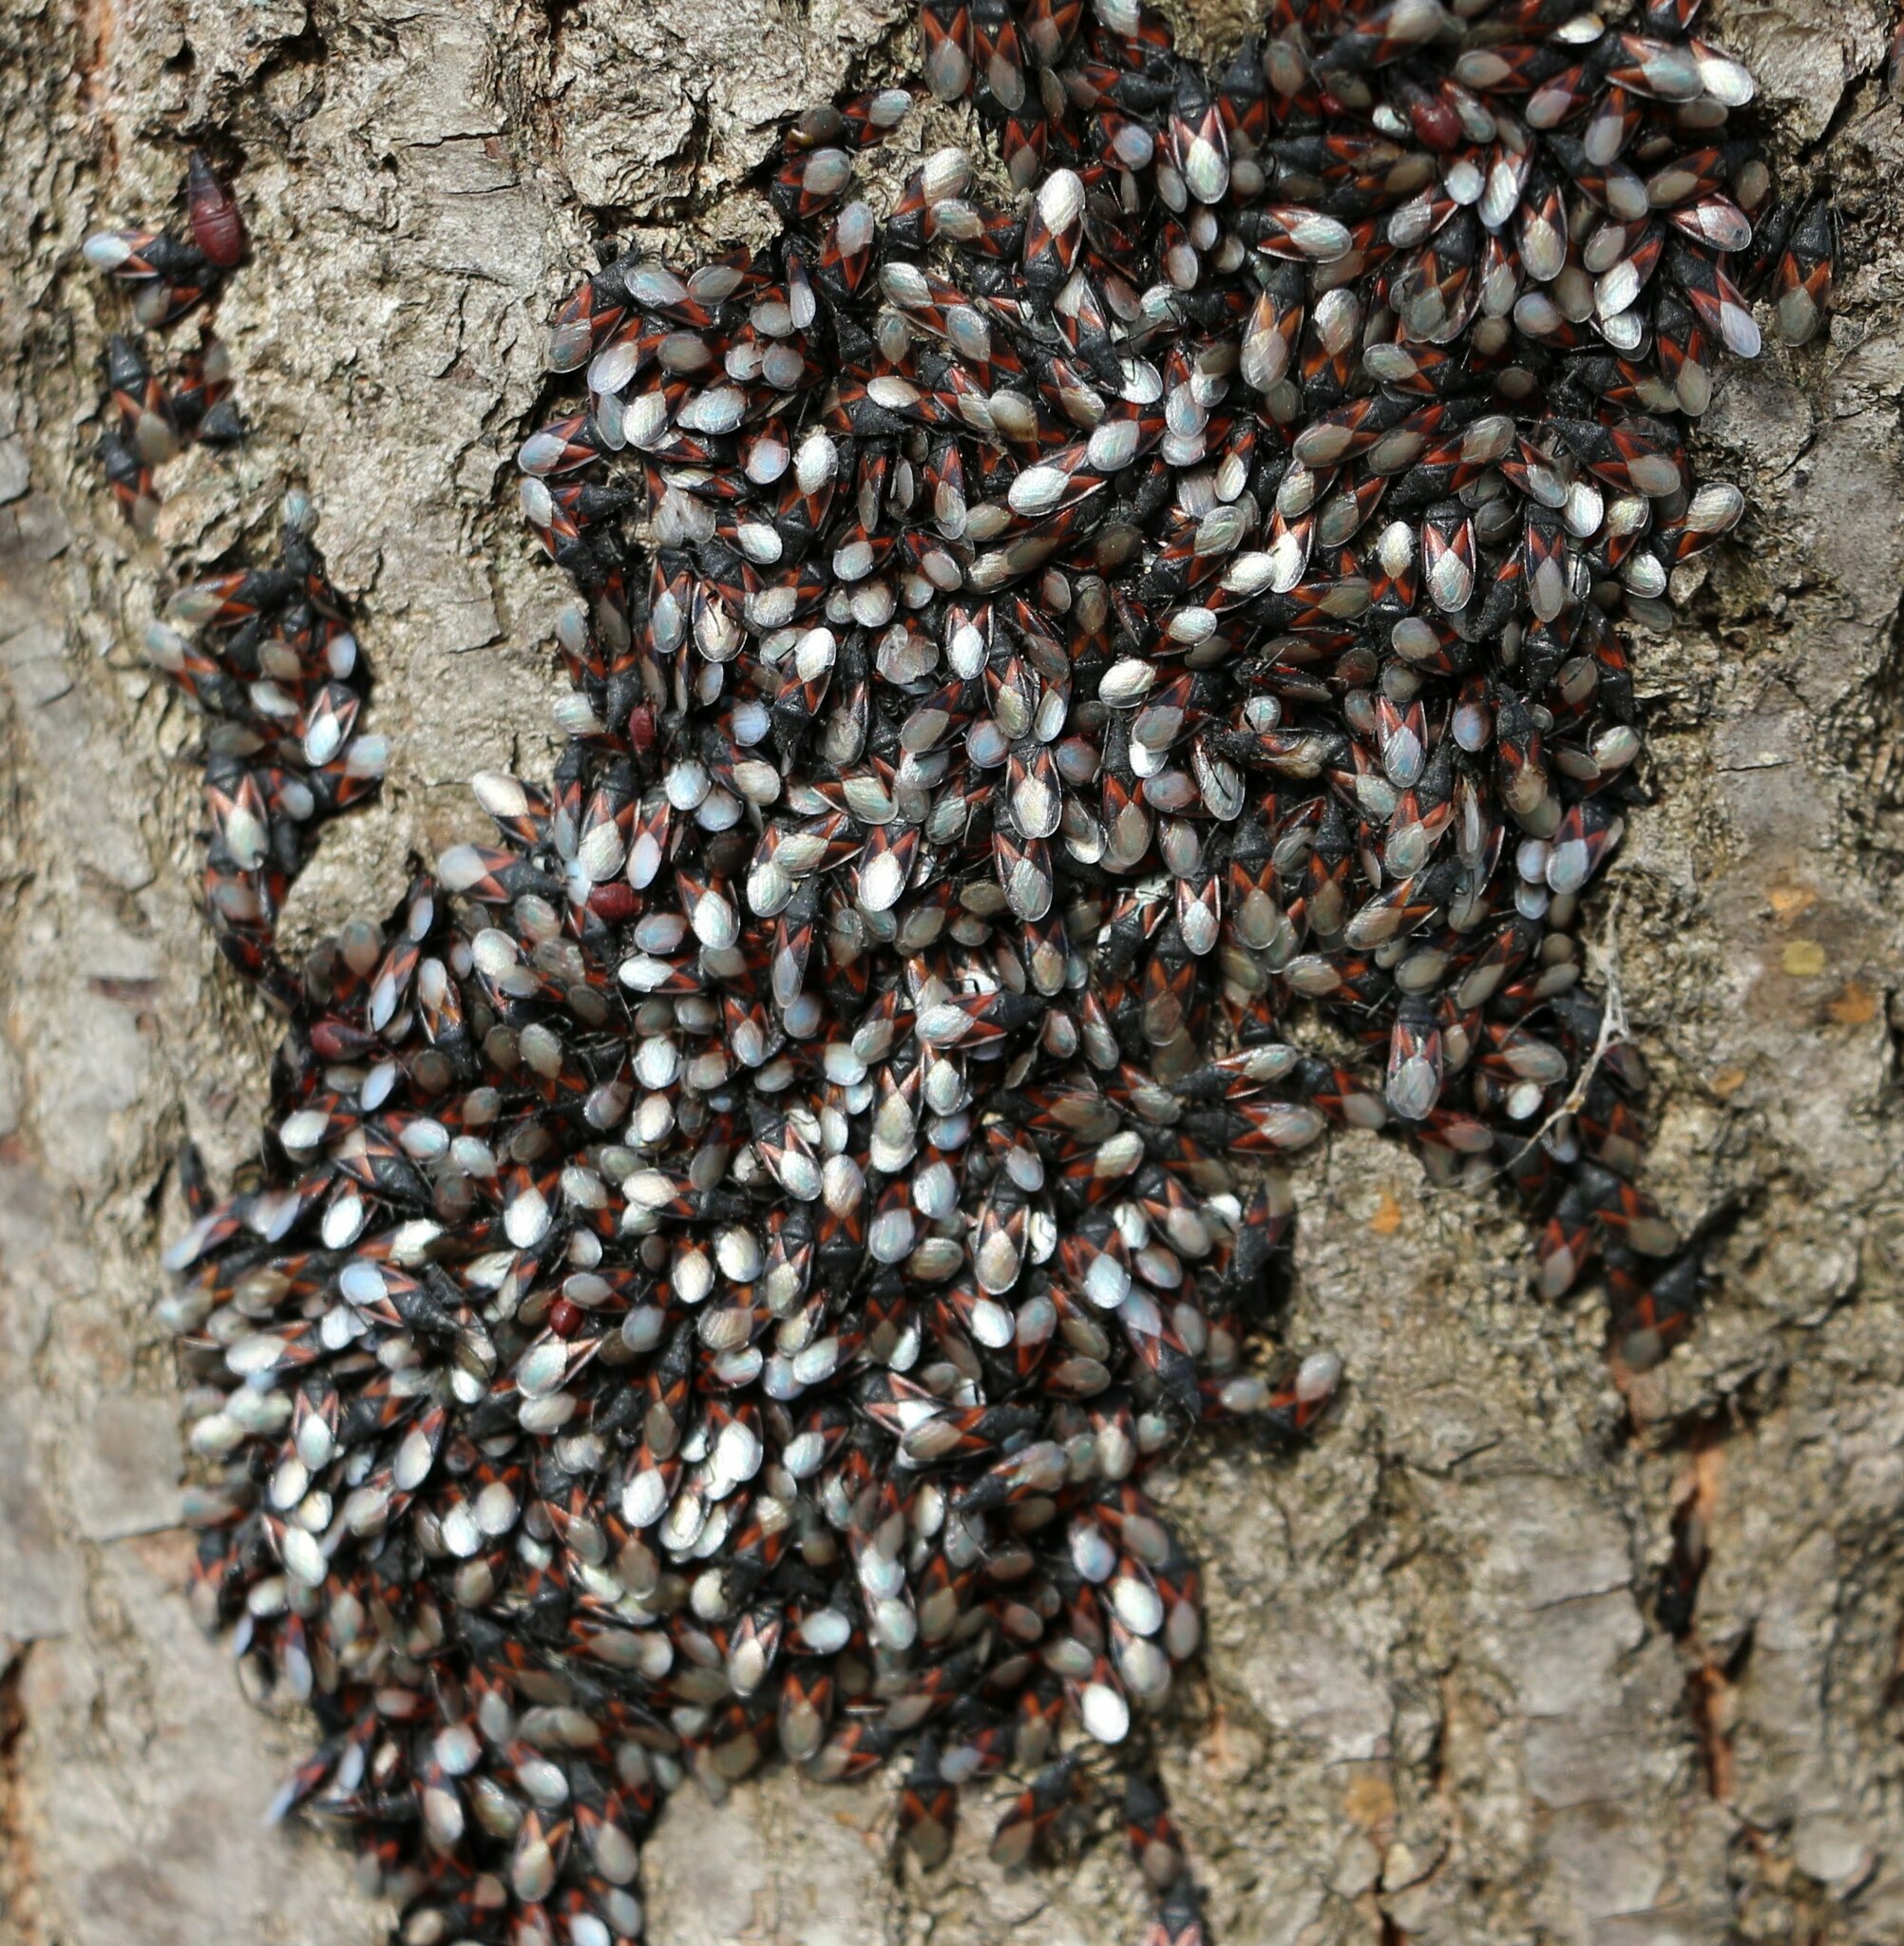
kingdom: Animalia
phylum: Arthropoda
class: Insecta
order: Hemiptera
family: Oxycarenidae
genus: Oxycarenus
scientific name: Oxycarenus lavaterae
